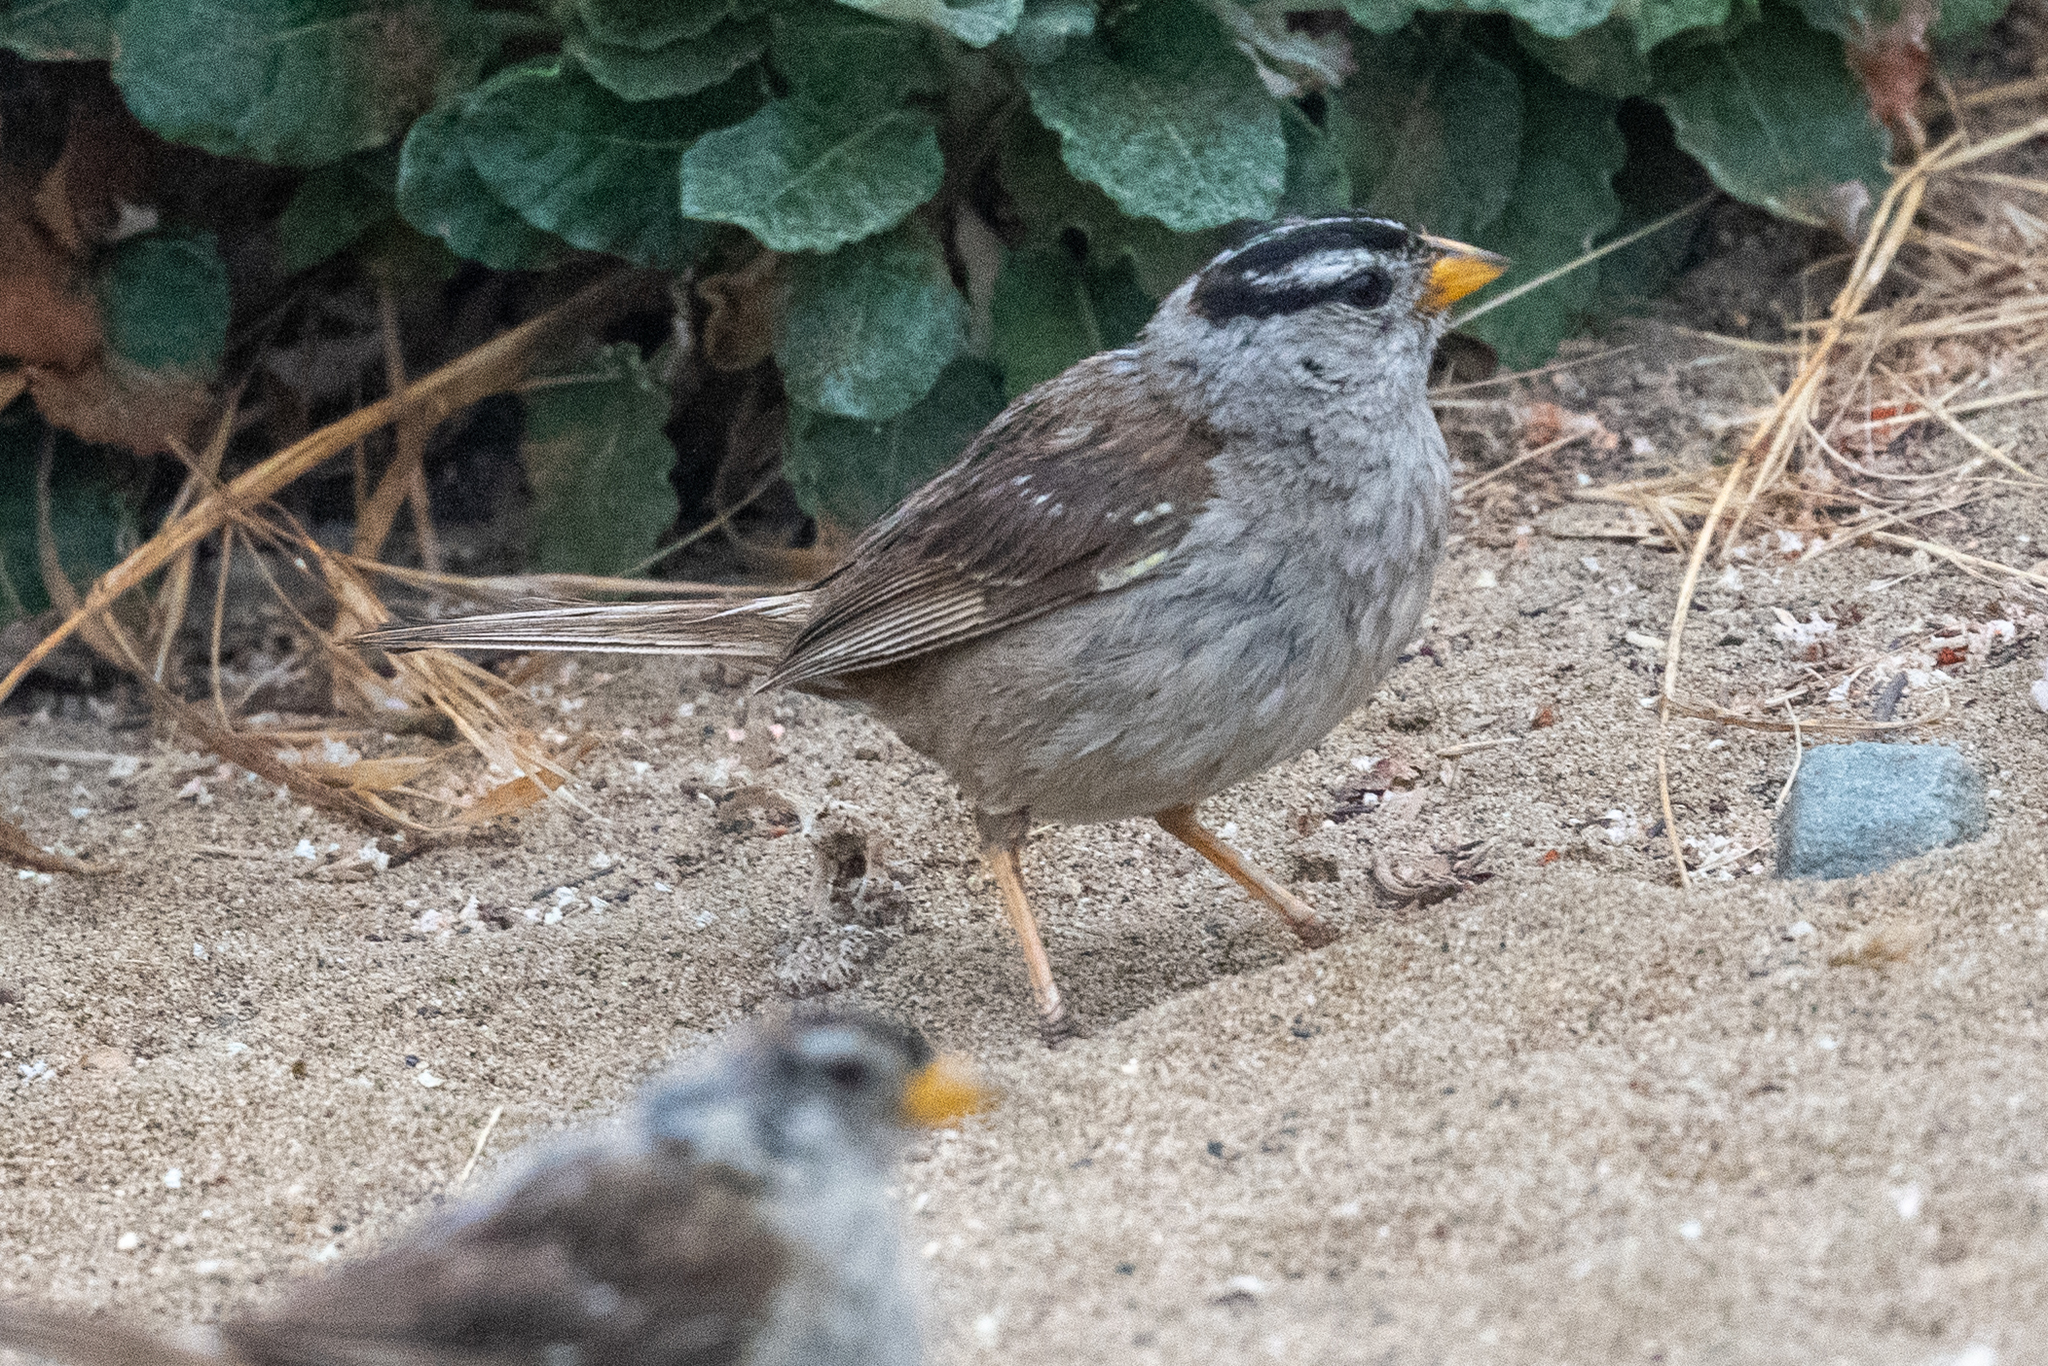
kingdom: Animalia
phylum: Chordata
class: Aves
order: Passeriformes
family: Passerellidae
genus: Zonotrichia
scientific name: Zonotrichia leucophrys
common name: White-crowned sparrow
